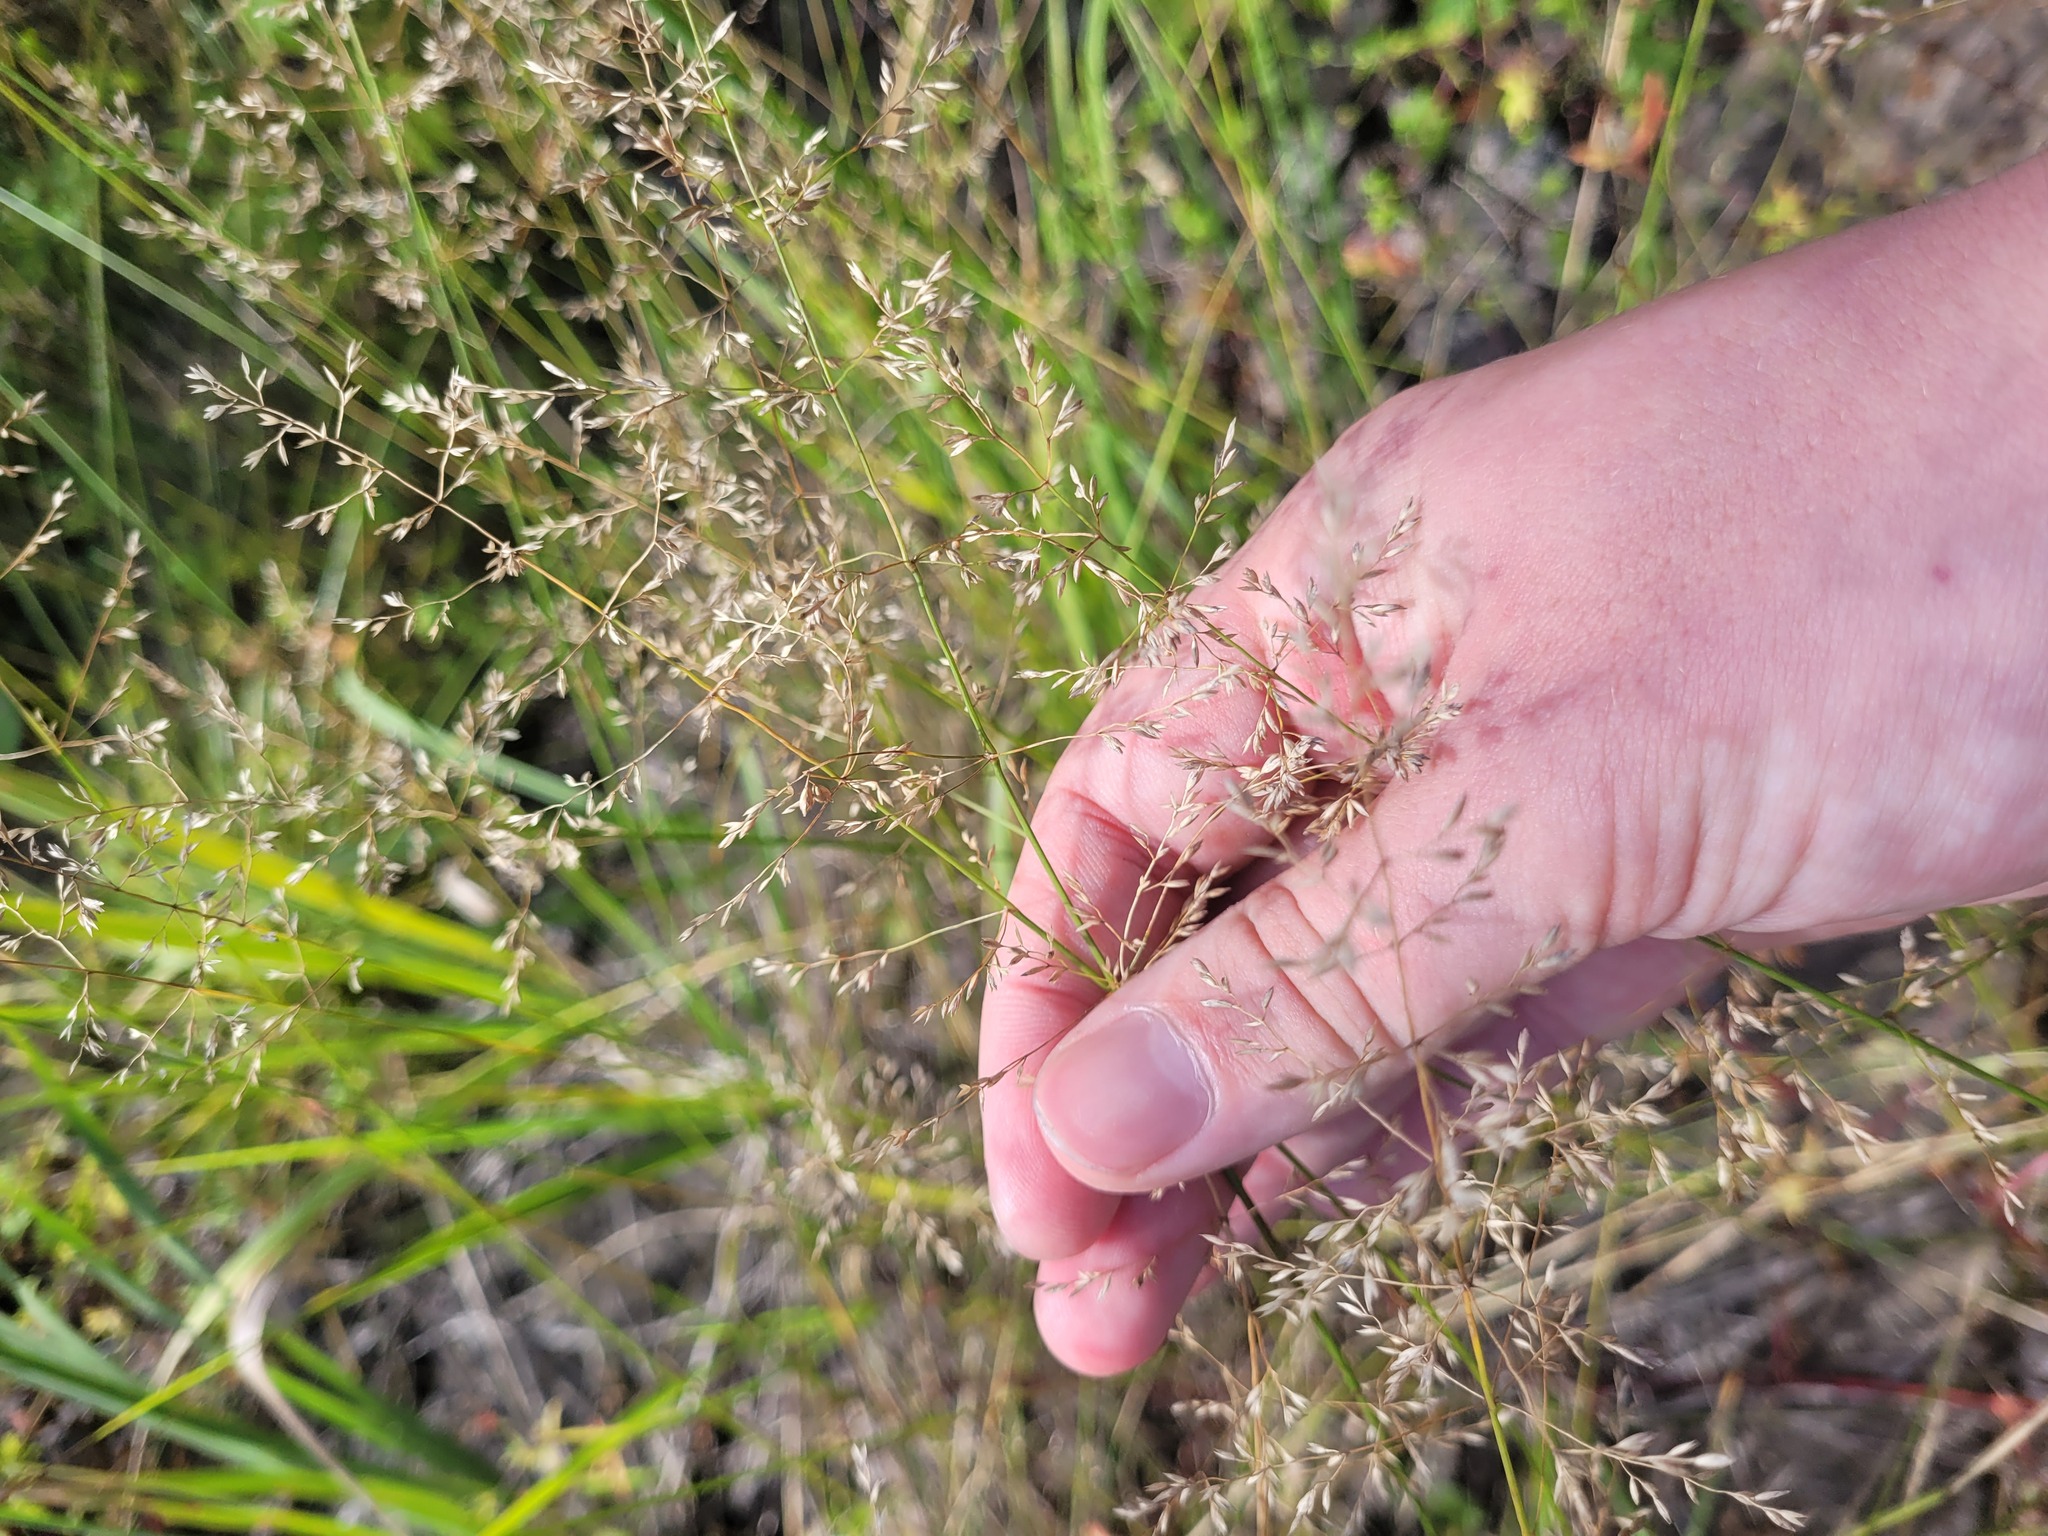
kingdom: Plantae
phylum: Tracheophyta
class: Liliopsida
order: Poales
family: Poaceae
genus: Poa
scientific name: Poa palustris
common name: Swamp meadow-grass
